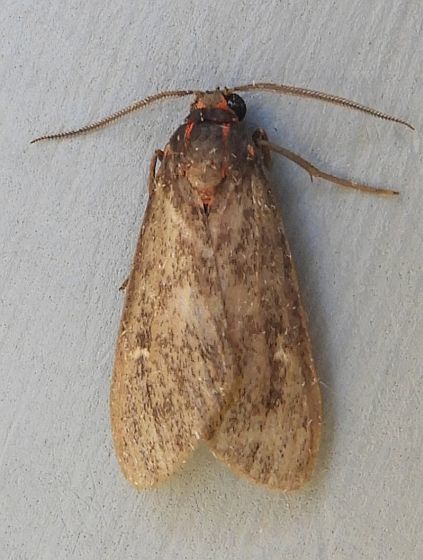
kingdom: Animalia
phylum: Arthropoda
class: Insecta
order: Lepidoptera
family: Erebidae
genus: Euchaetes
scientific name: Euchaetes zella
